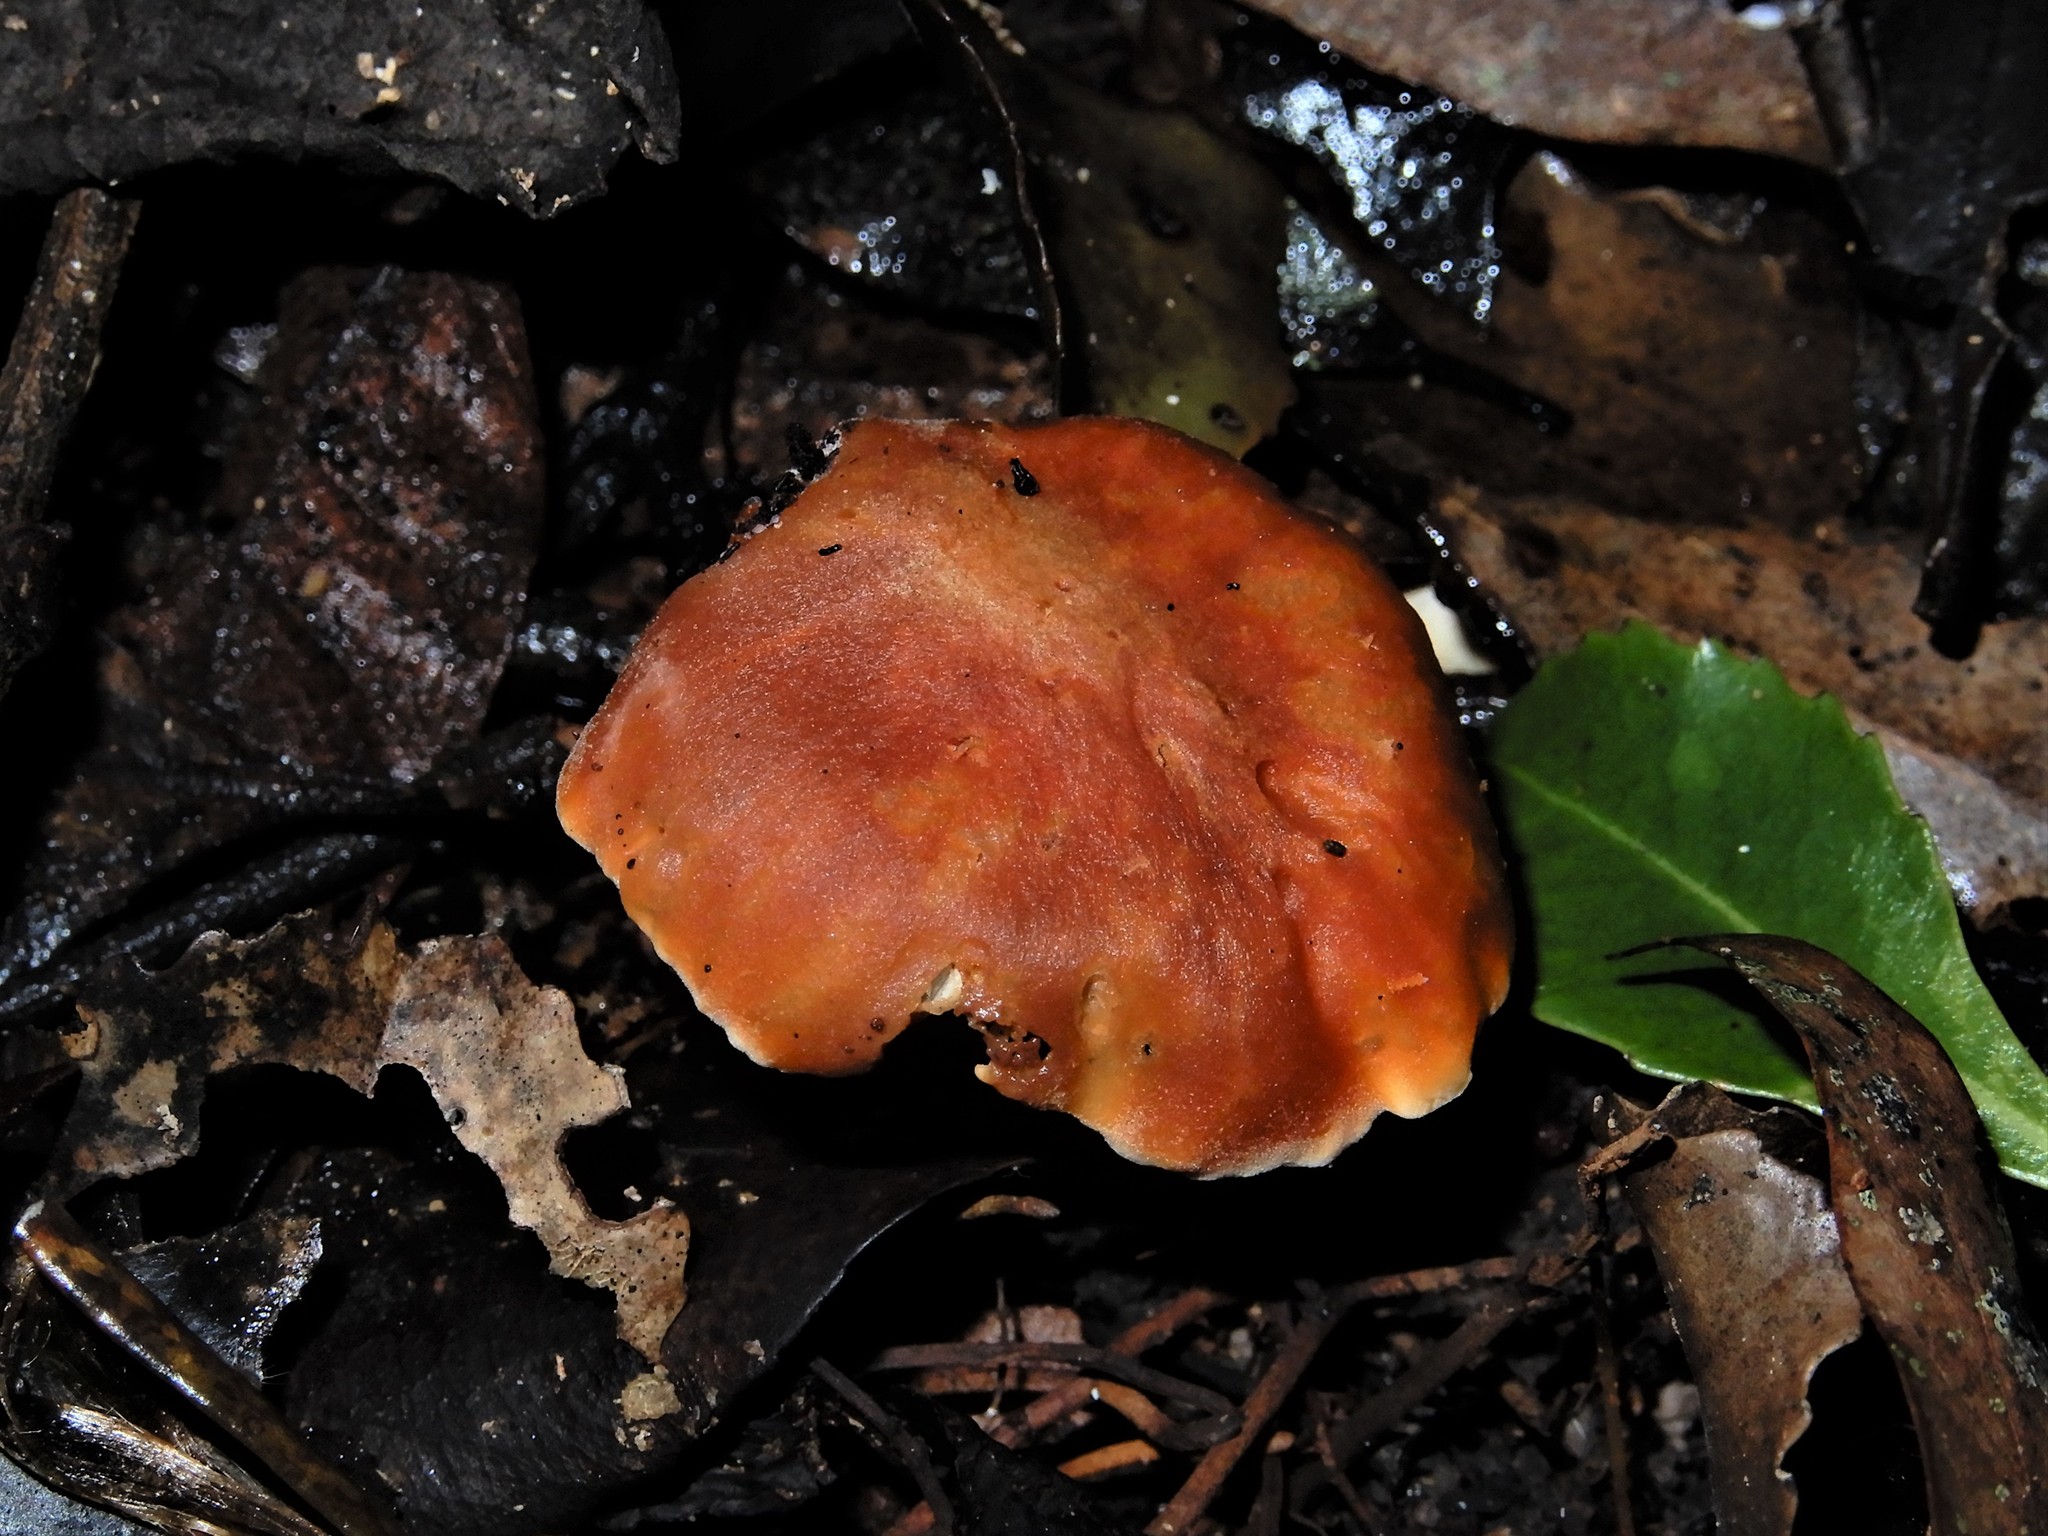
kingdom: Fungi
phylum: Basidiomycota
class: Agaricomycetes
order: Agaricales
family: Hygrophoraceae
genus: Cuphophyllus
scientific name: Cuphophyllus
